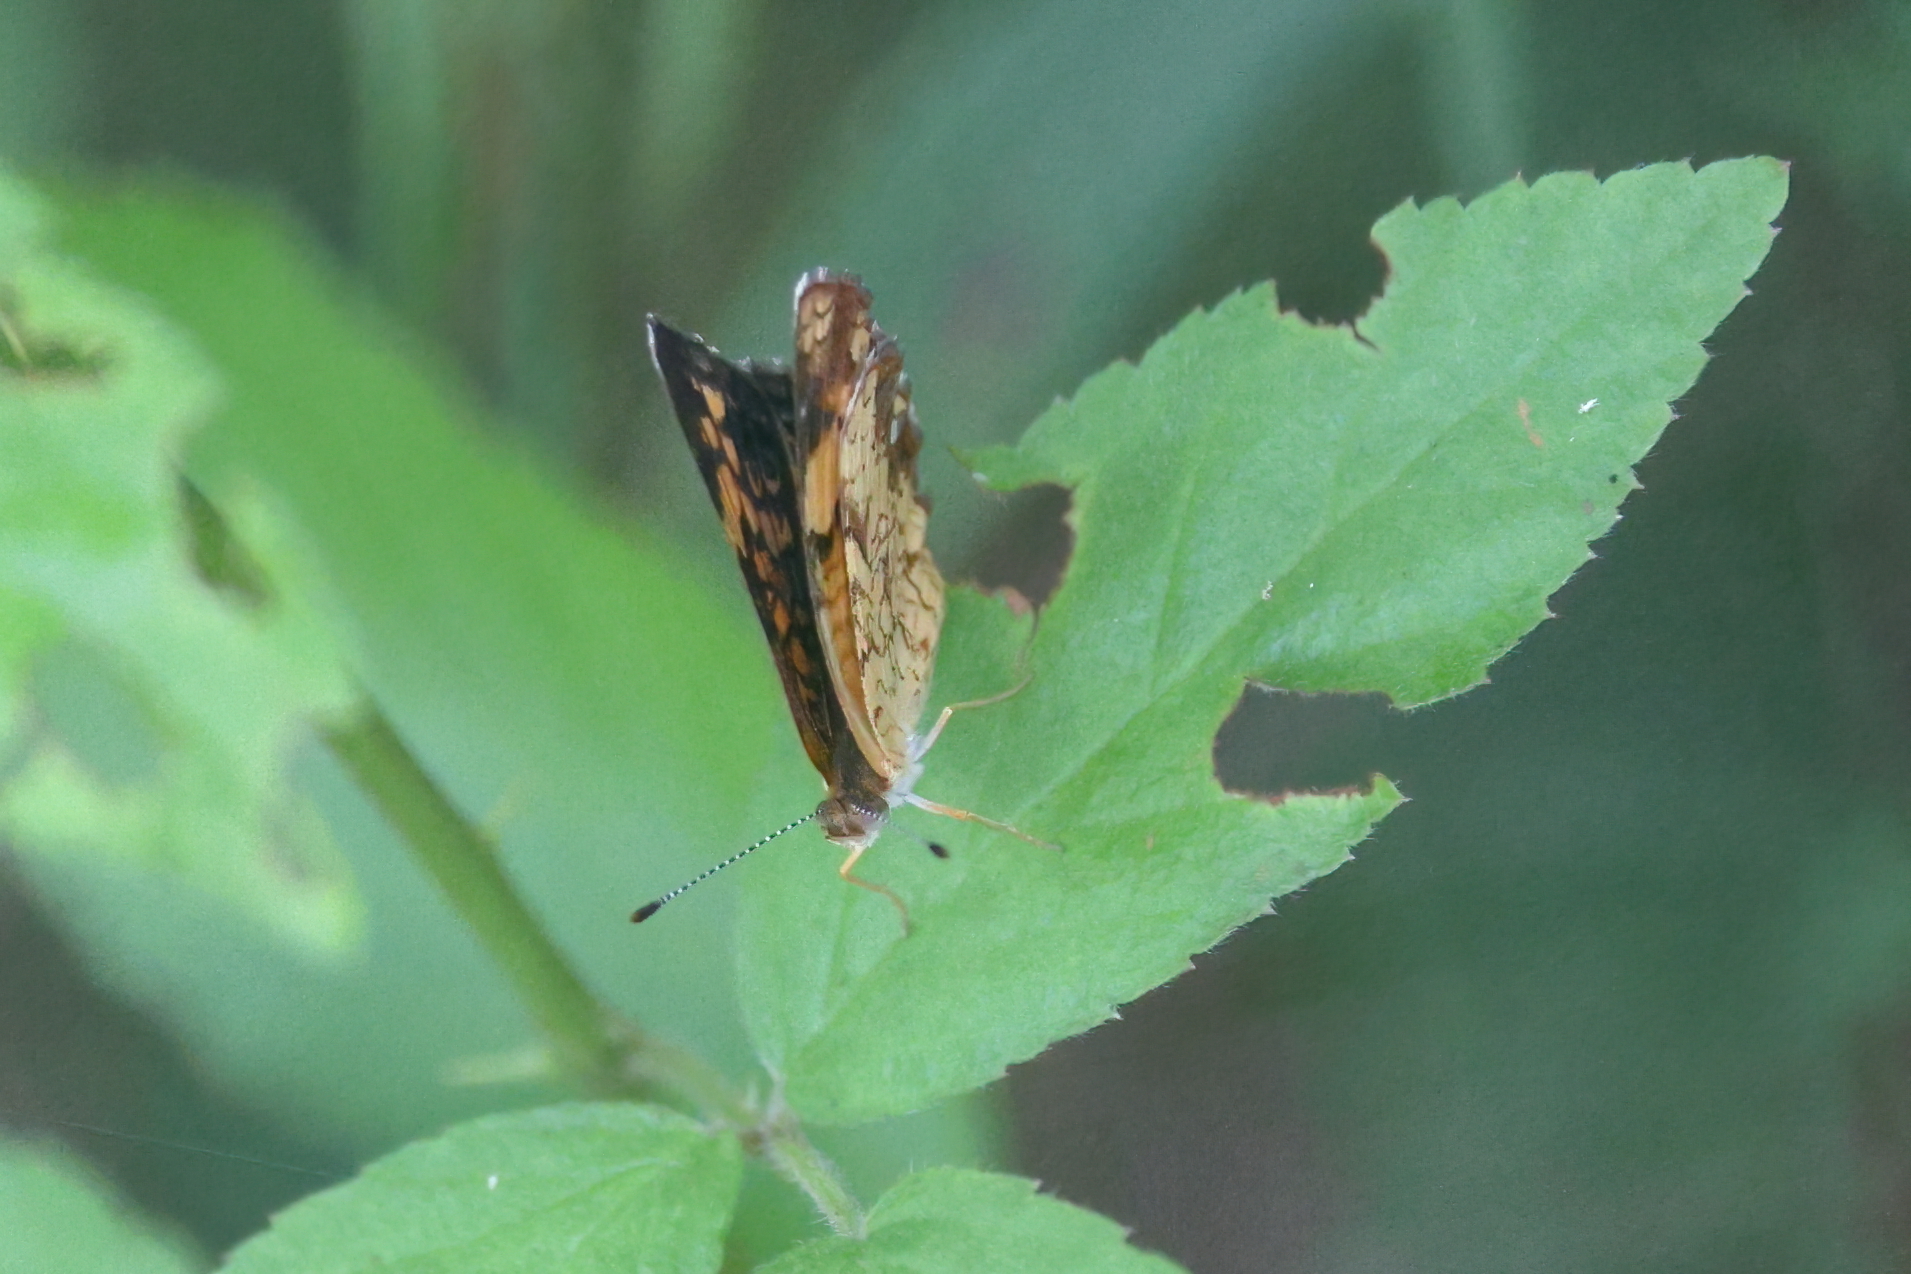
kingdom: Animalia
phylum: Arthropoda
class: Insecta
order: Lepidoptera
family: Nymphalidae
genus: Phyciodes
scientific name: Phyciodes tharos
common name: Pearl crescent
